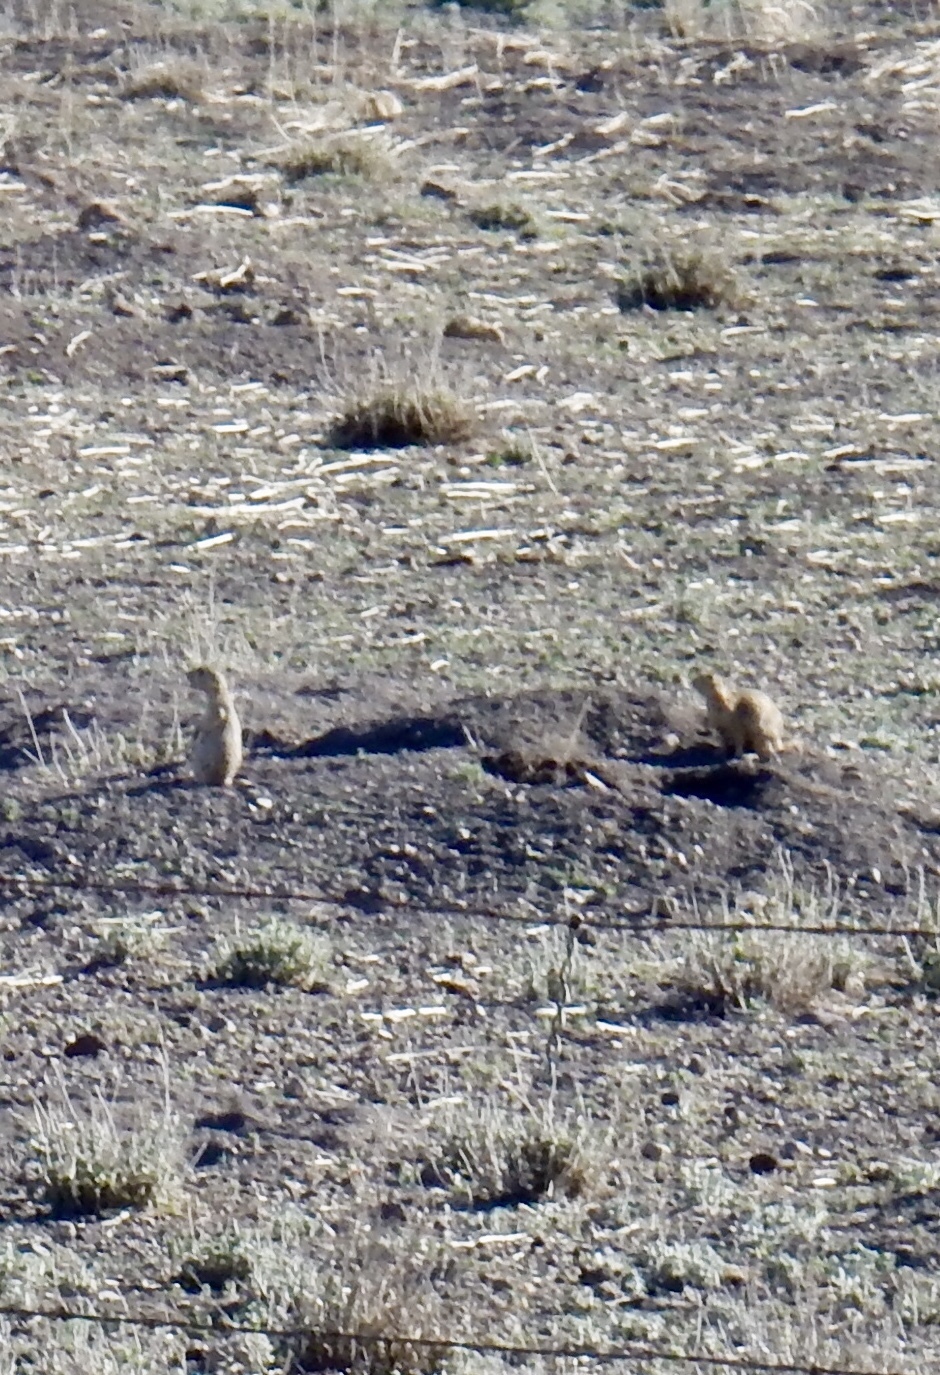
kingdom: Animalia
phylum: Chordata
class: Mammalia
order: Rodentia
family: Sciuridae
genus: Cynomys
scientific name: Cynomys gunnisoni
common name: Gunnison's prairie dog
